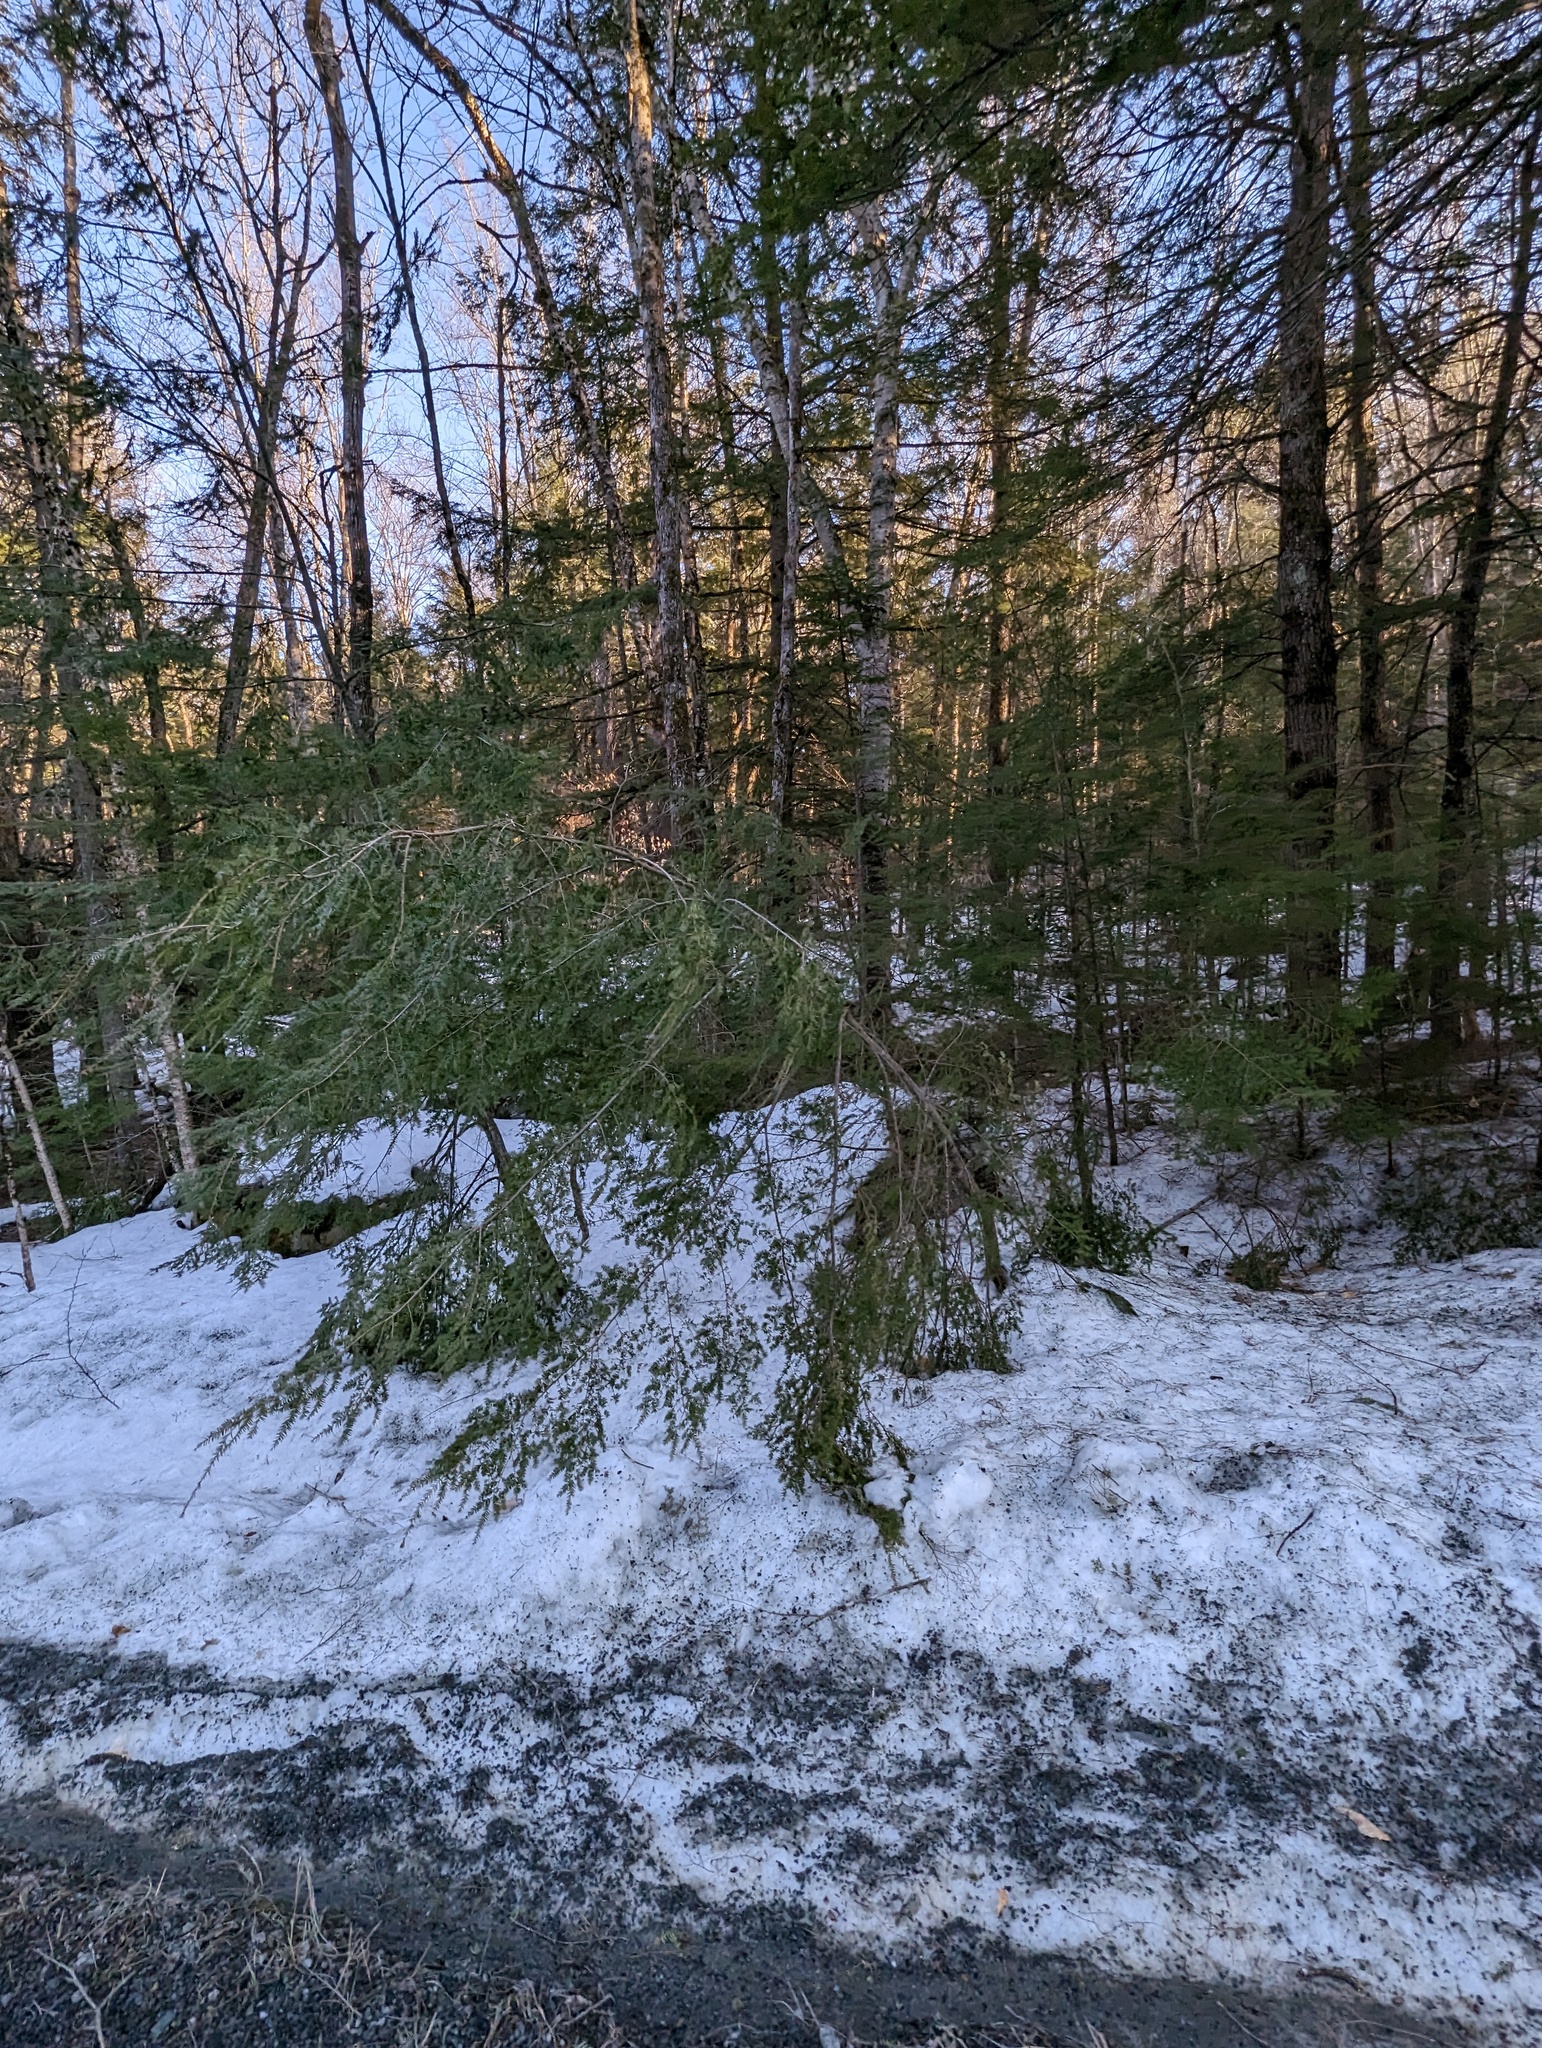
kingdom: Plantae
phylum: Tracheophyta
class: Pinopsida
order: Pinales
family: Pinaceae
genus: Tsuga
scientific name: Tsuga canadensis
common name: Eastern hemlock
